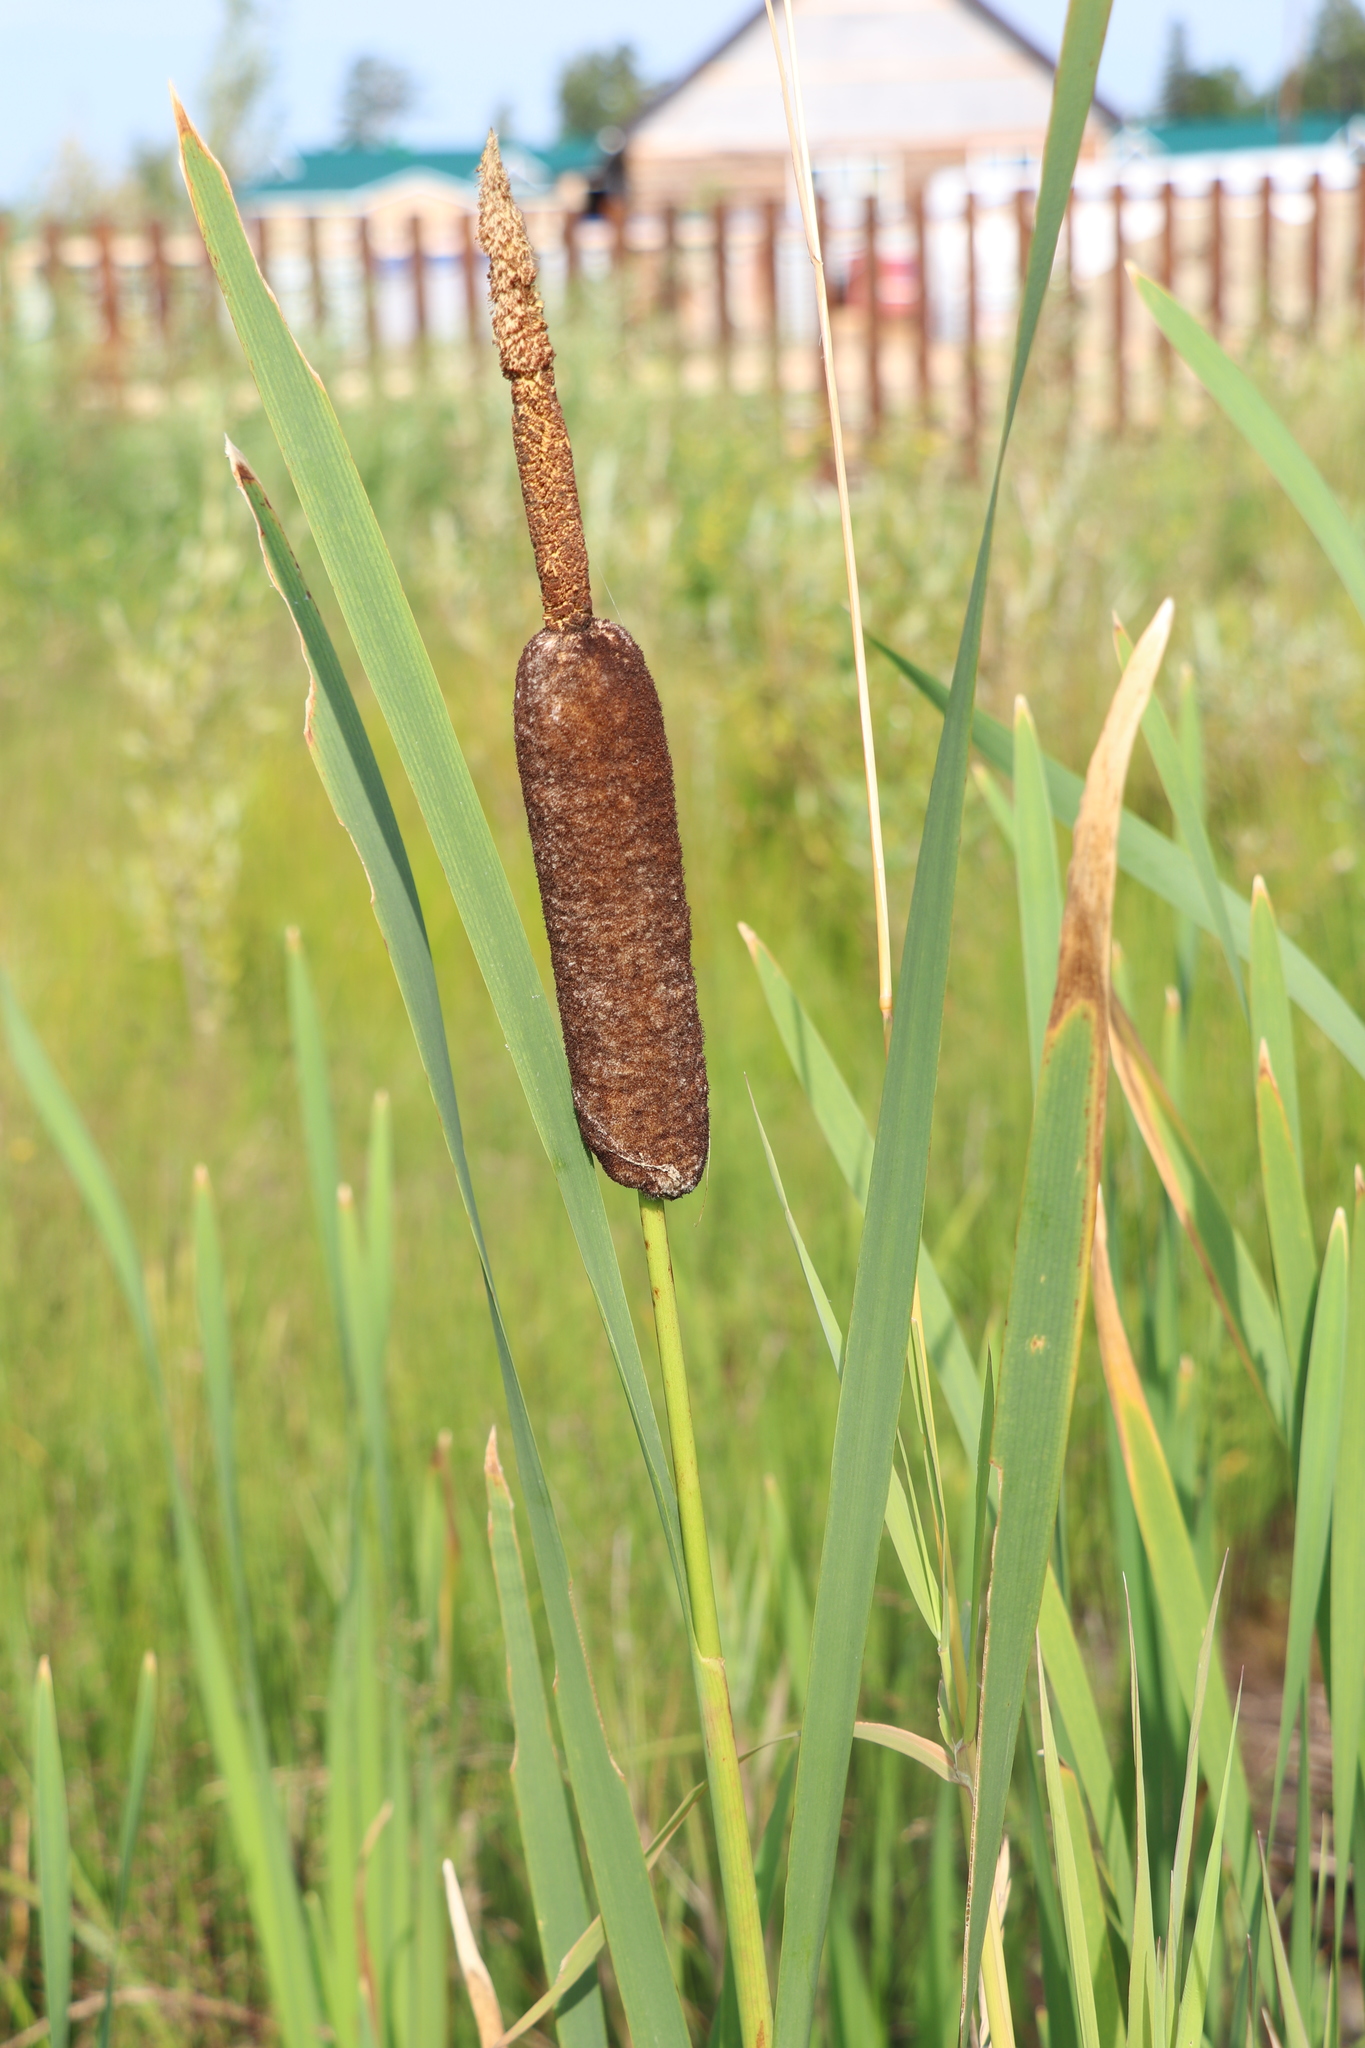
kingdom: Plantae
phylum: Tracheophyta
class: Liliopsida
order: Poales
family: Typhaceae
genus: Typha
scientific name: Typha latifolia
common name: Broadleaf cattail
